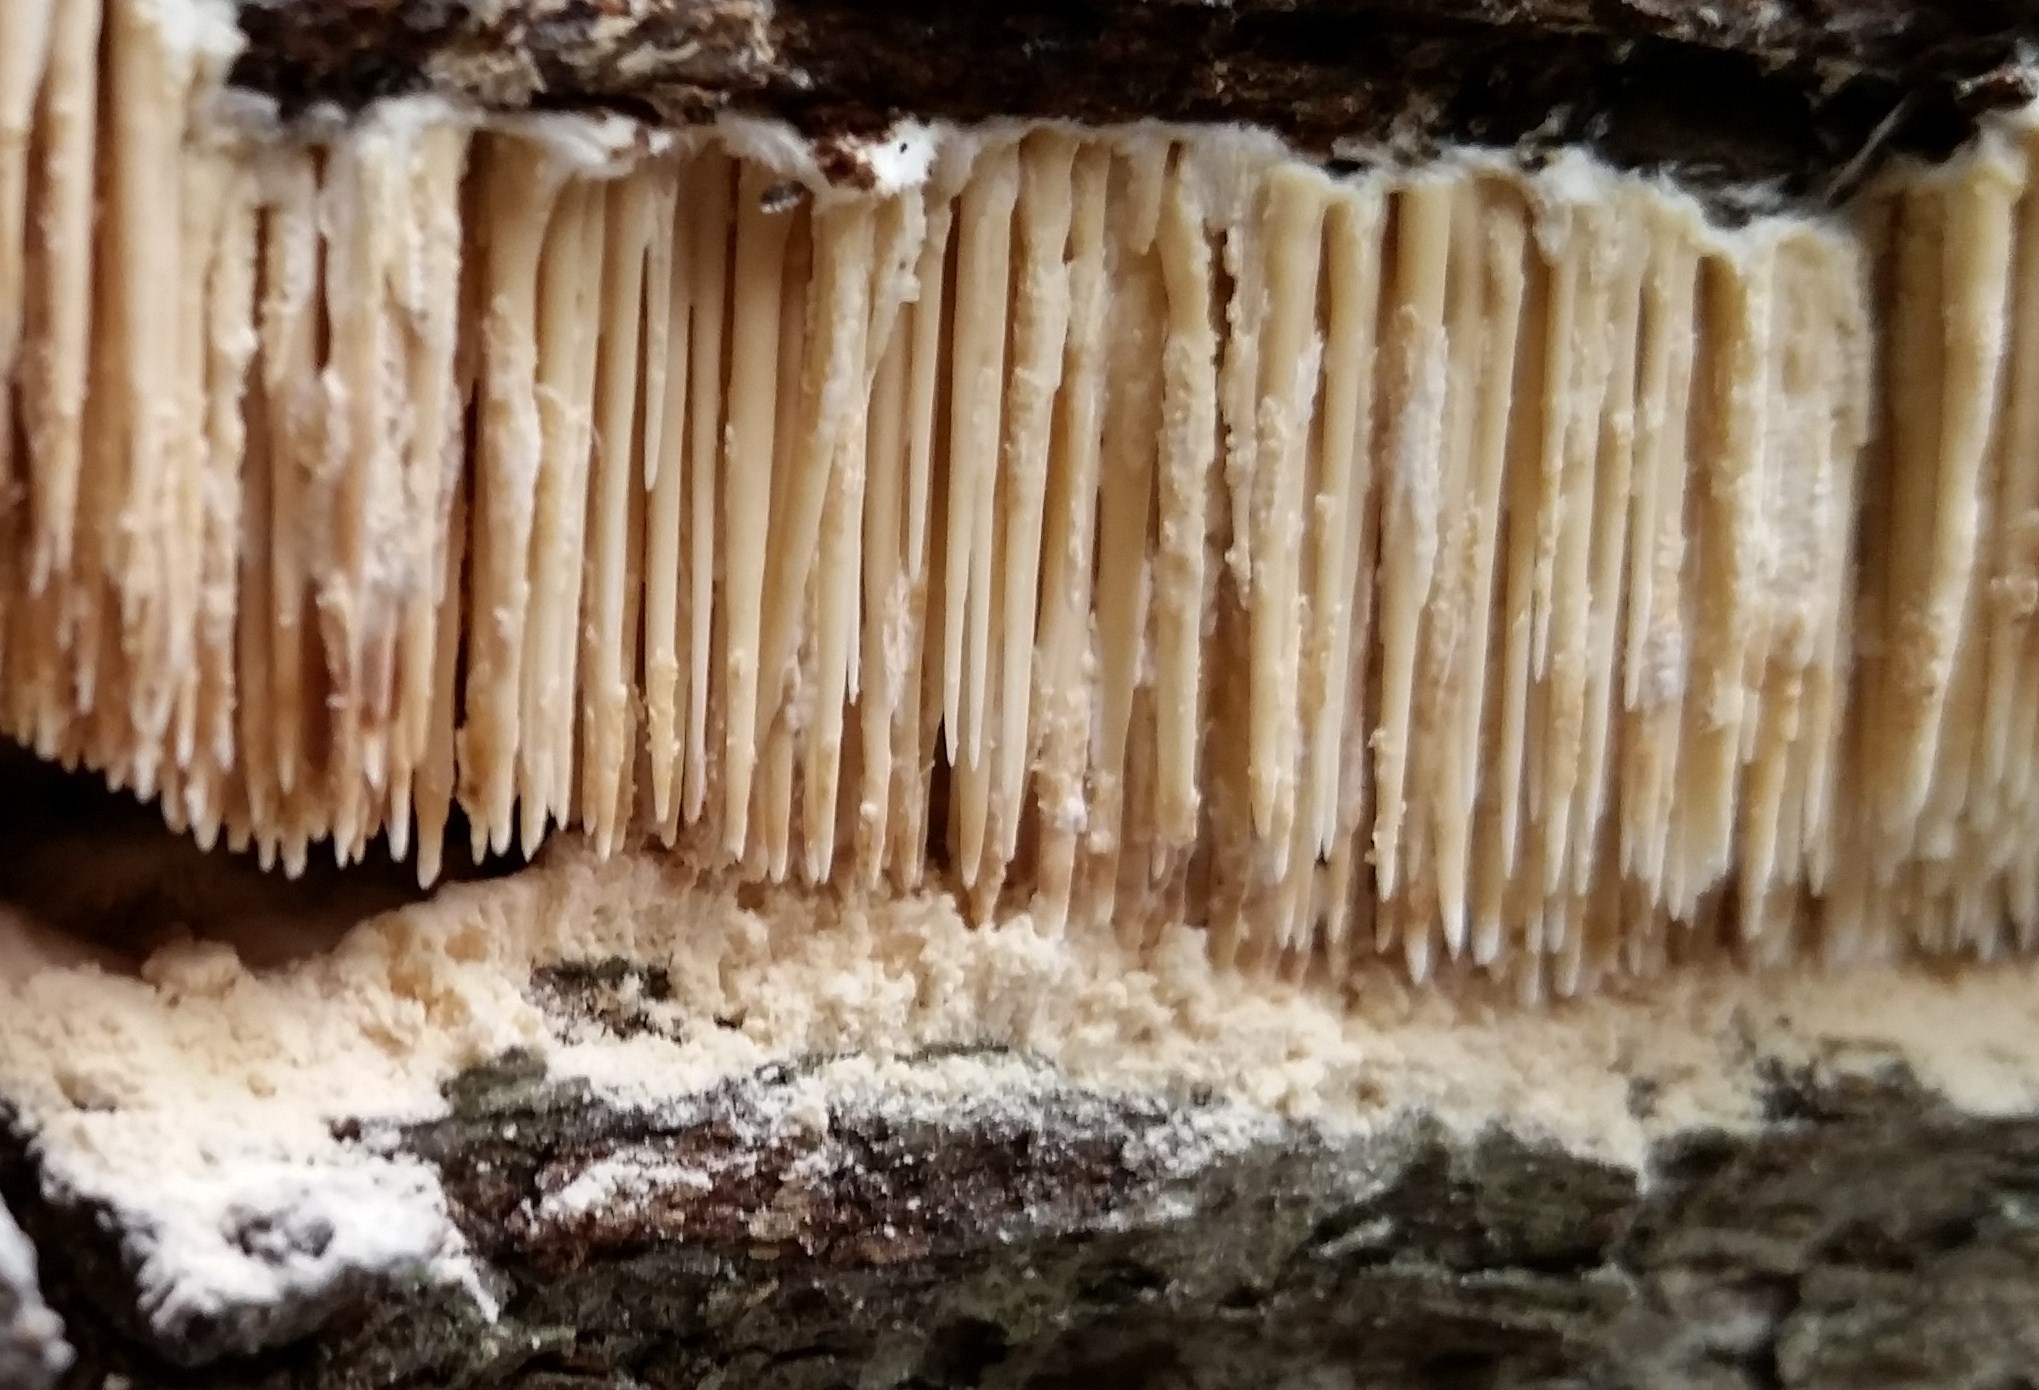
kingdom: Fungi
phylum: Basidiomycota
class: Agaricomycetes
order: Agaricales
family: Radulomycetaceae
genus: Radulomyces
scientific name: Radulomyces copelandii
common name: Asian beauty
